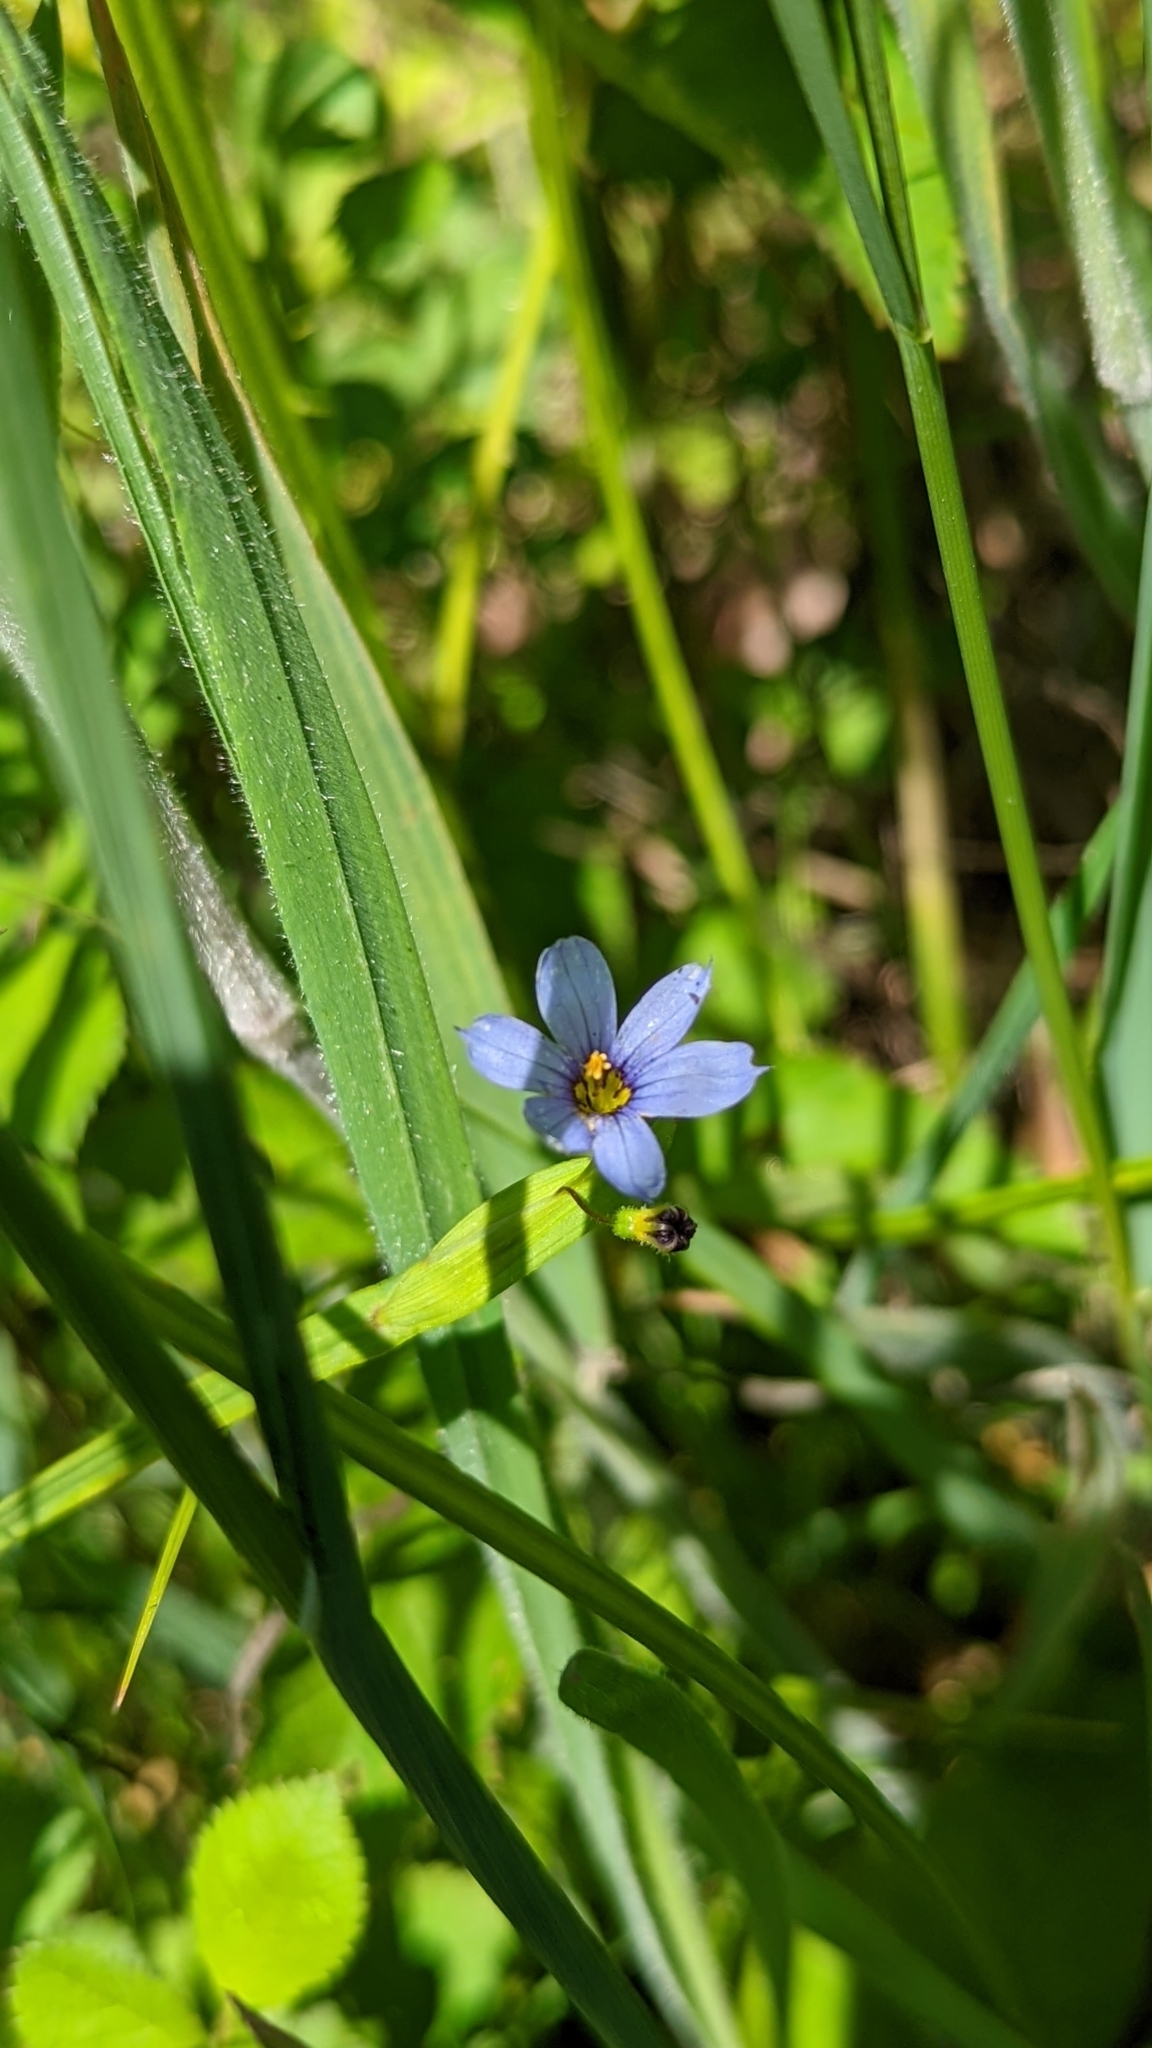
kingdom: Plantae
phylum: Tracheophyta
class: Liliopsida
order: Asparagales
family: Iridaceae
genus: Sisyrinchium
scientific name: Sisyrinchium angustifolium
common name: Narrow-leaf blue-eyed-grass
